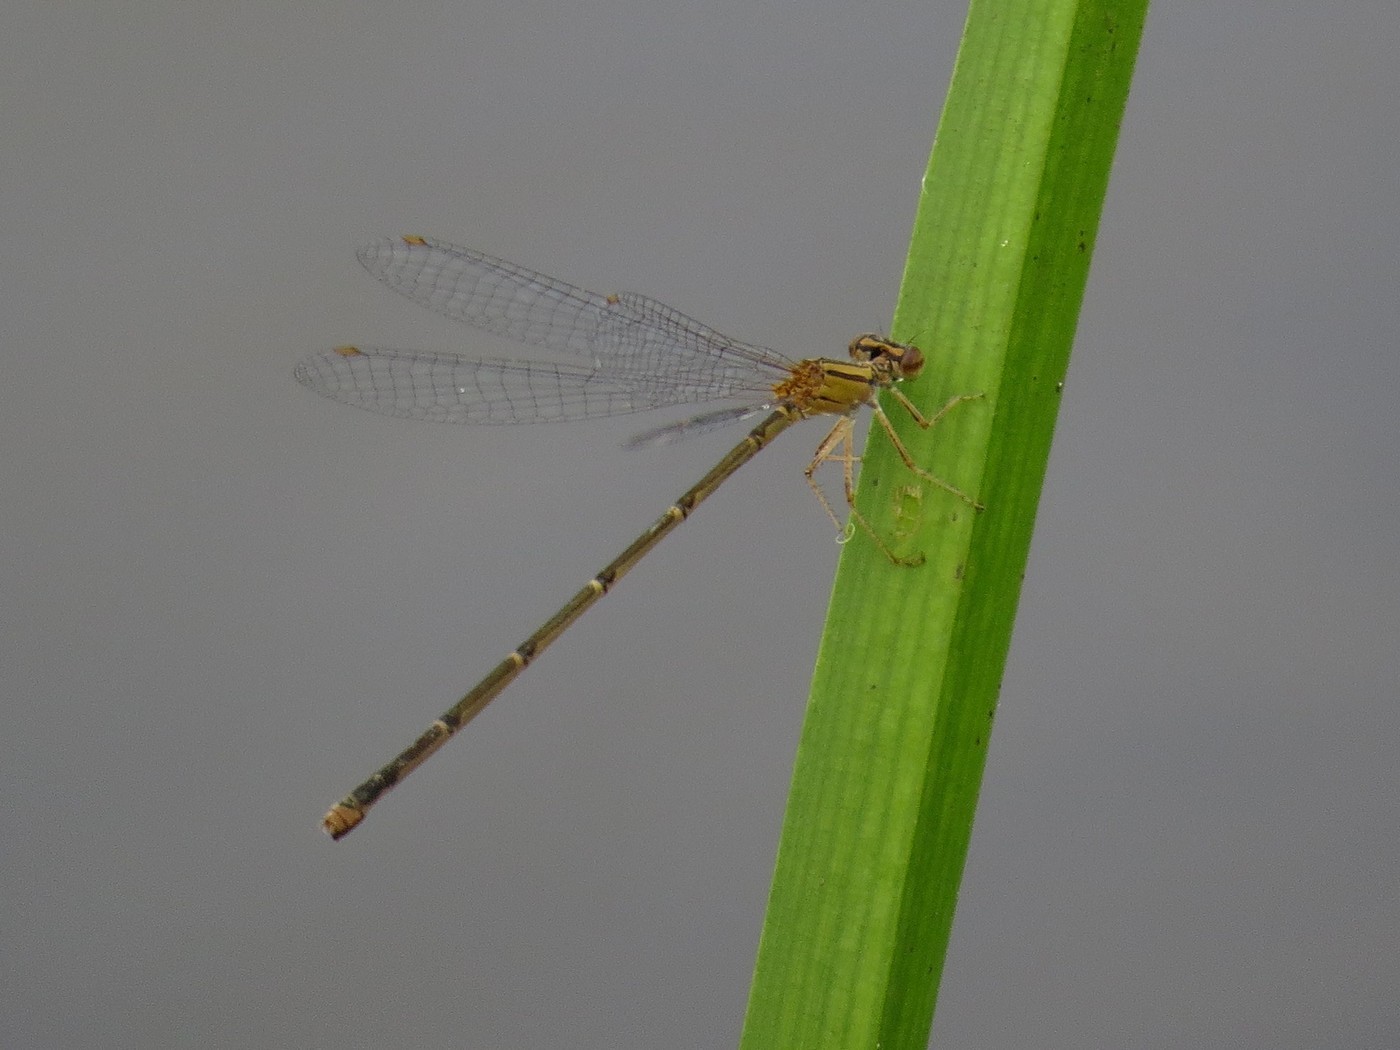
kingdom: Animalia
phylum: Arthropoda
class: Insecta
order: Odonata
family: Coenagrionidae
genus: Enallagma
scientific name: Enallagma signatum
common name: Orange bluet
